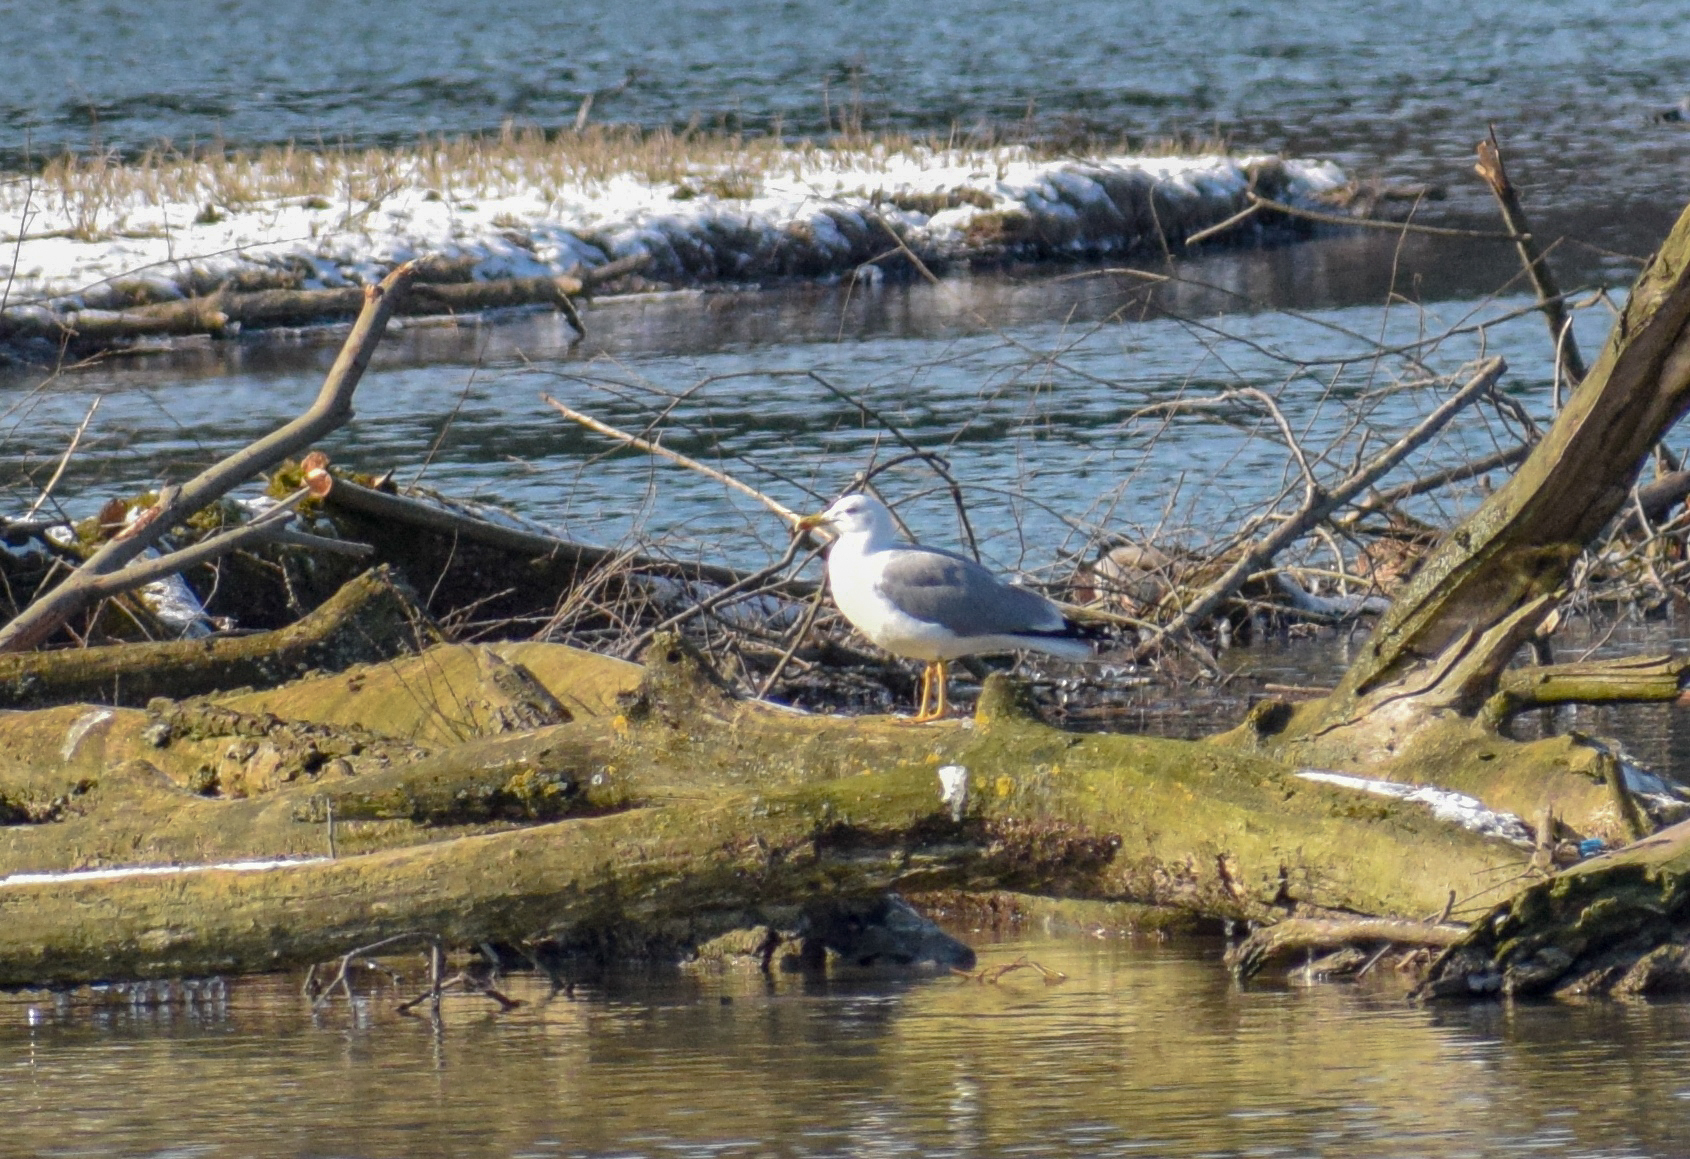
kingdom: Animalia
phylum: Chordata
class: Aves
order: Charadriiformes
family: Laridae
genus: Larus
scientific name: Larus michahellis
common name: Yellow-legged gull
